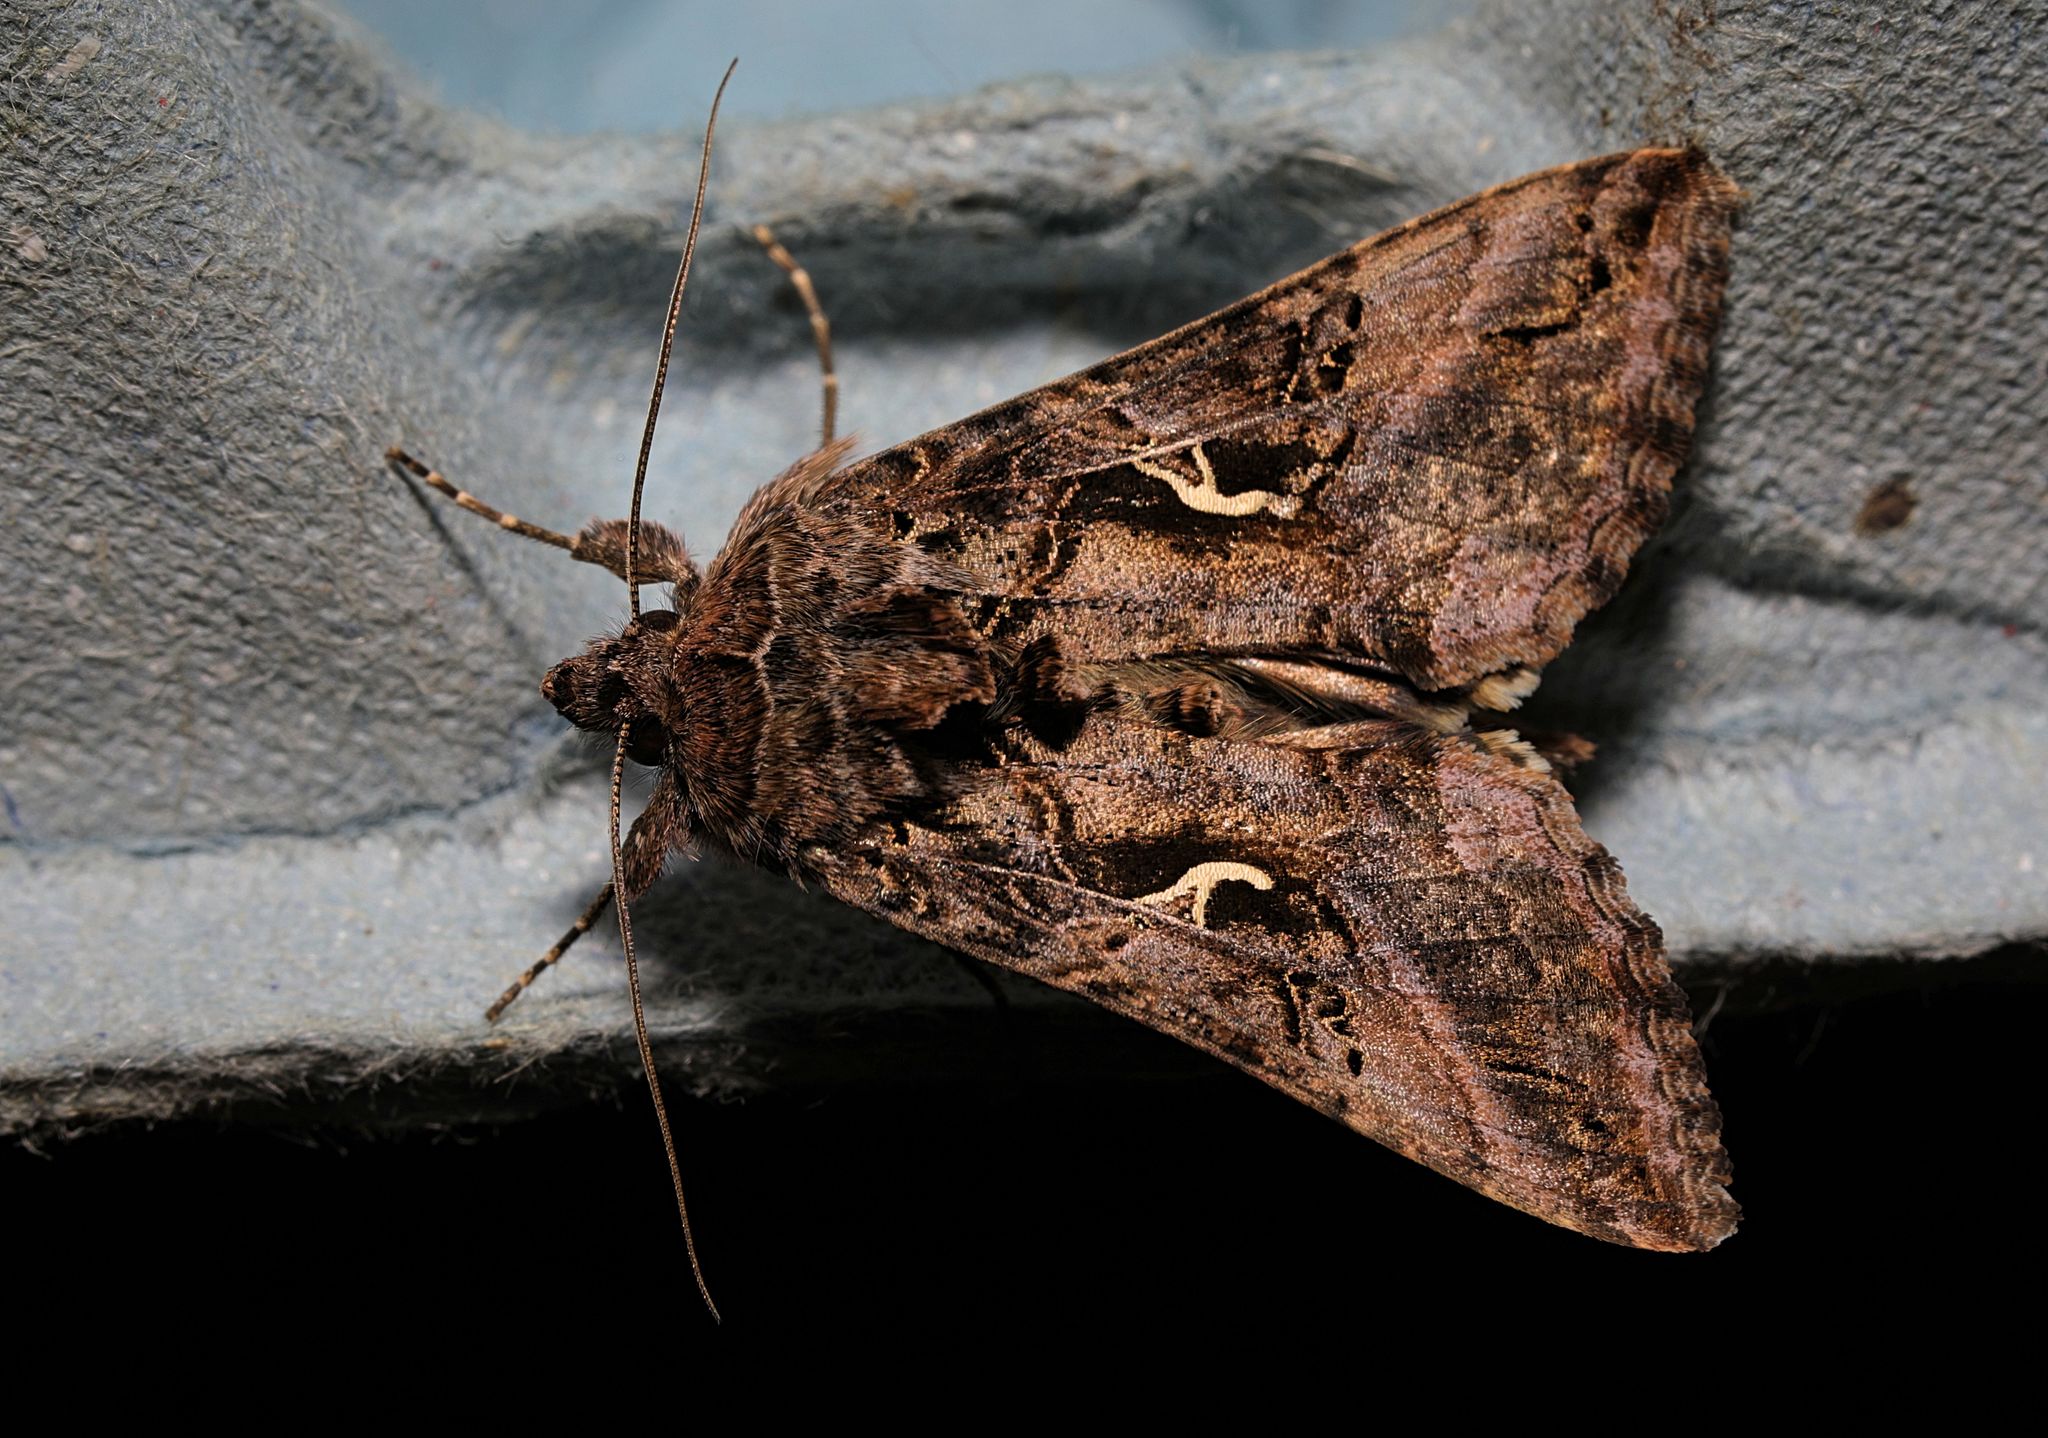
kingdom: Animalia
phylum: Arthropoda
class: Insecta
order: Lepidoptera
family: Noctuidae
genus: Autographa
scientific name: Autographa gamma
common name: Silver y
